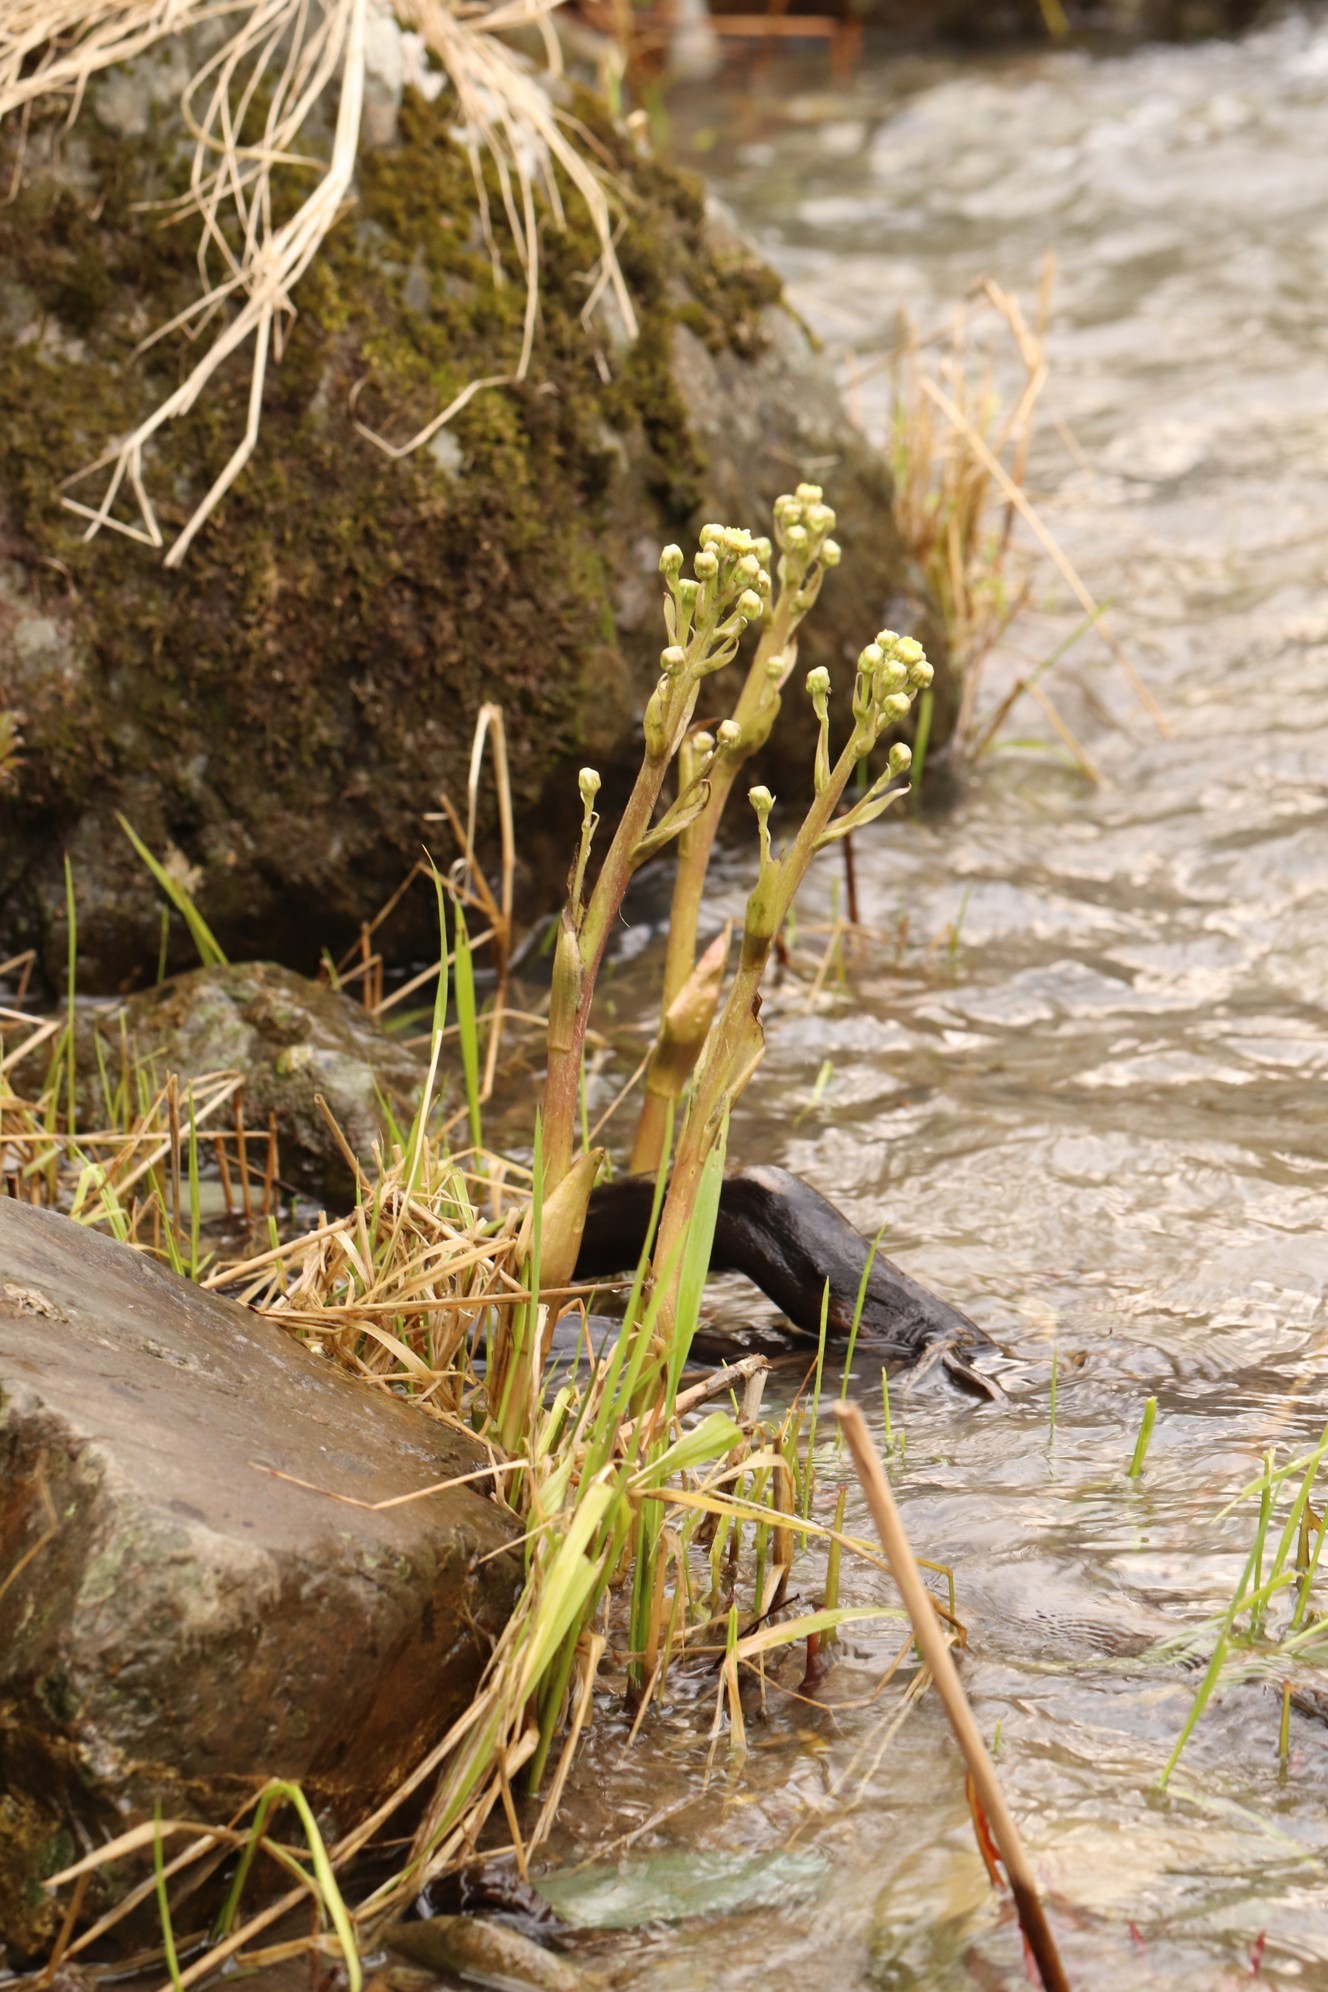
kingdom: Plantae
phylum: Tracheophyta
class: Magnoliopsida
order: Asterales
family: Asteraceae
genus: Petasites
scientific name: Petasites radiatus
